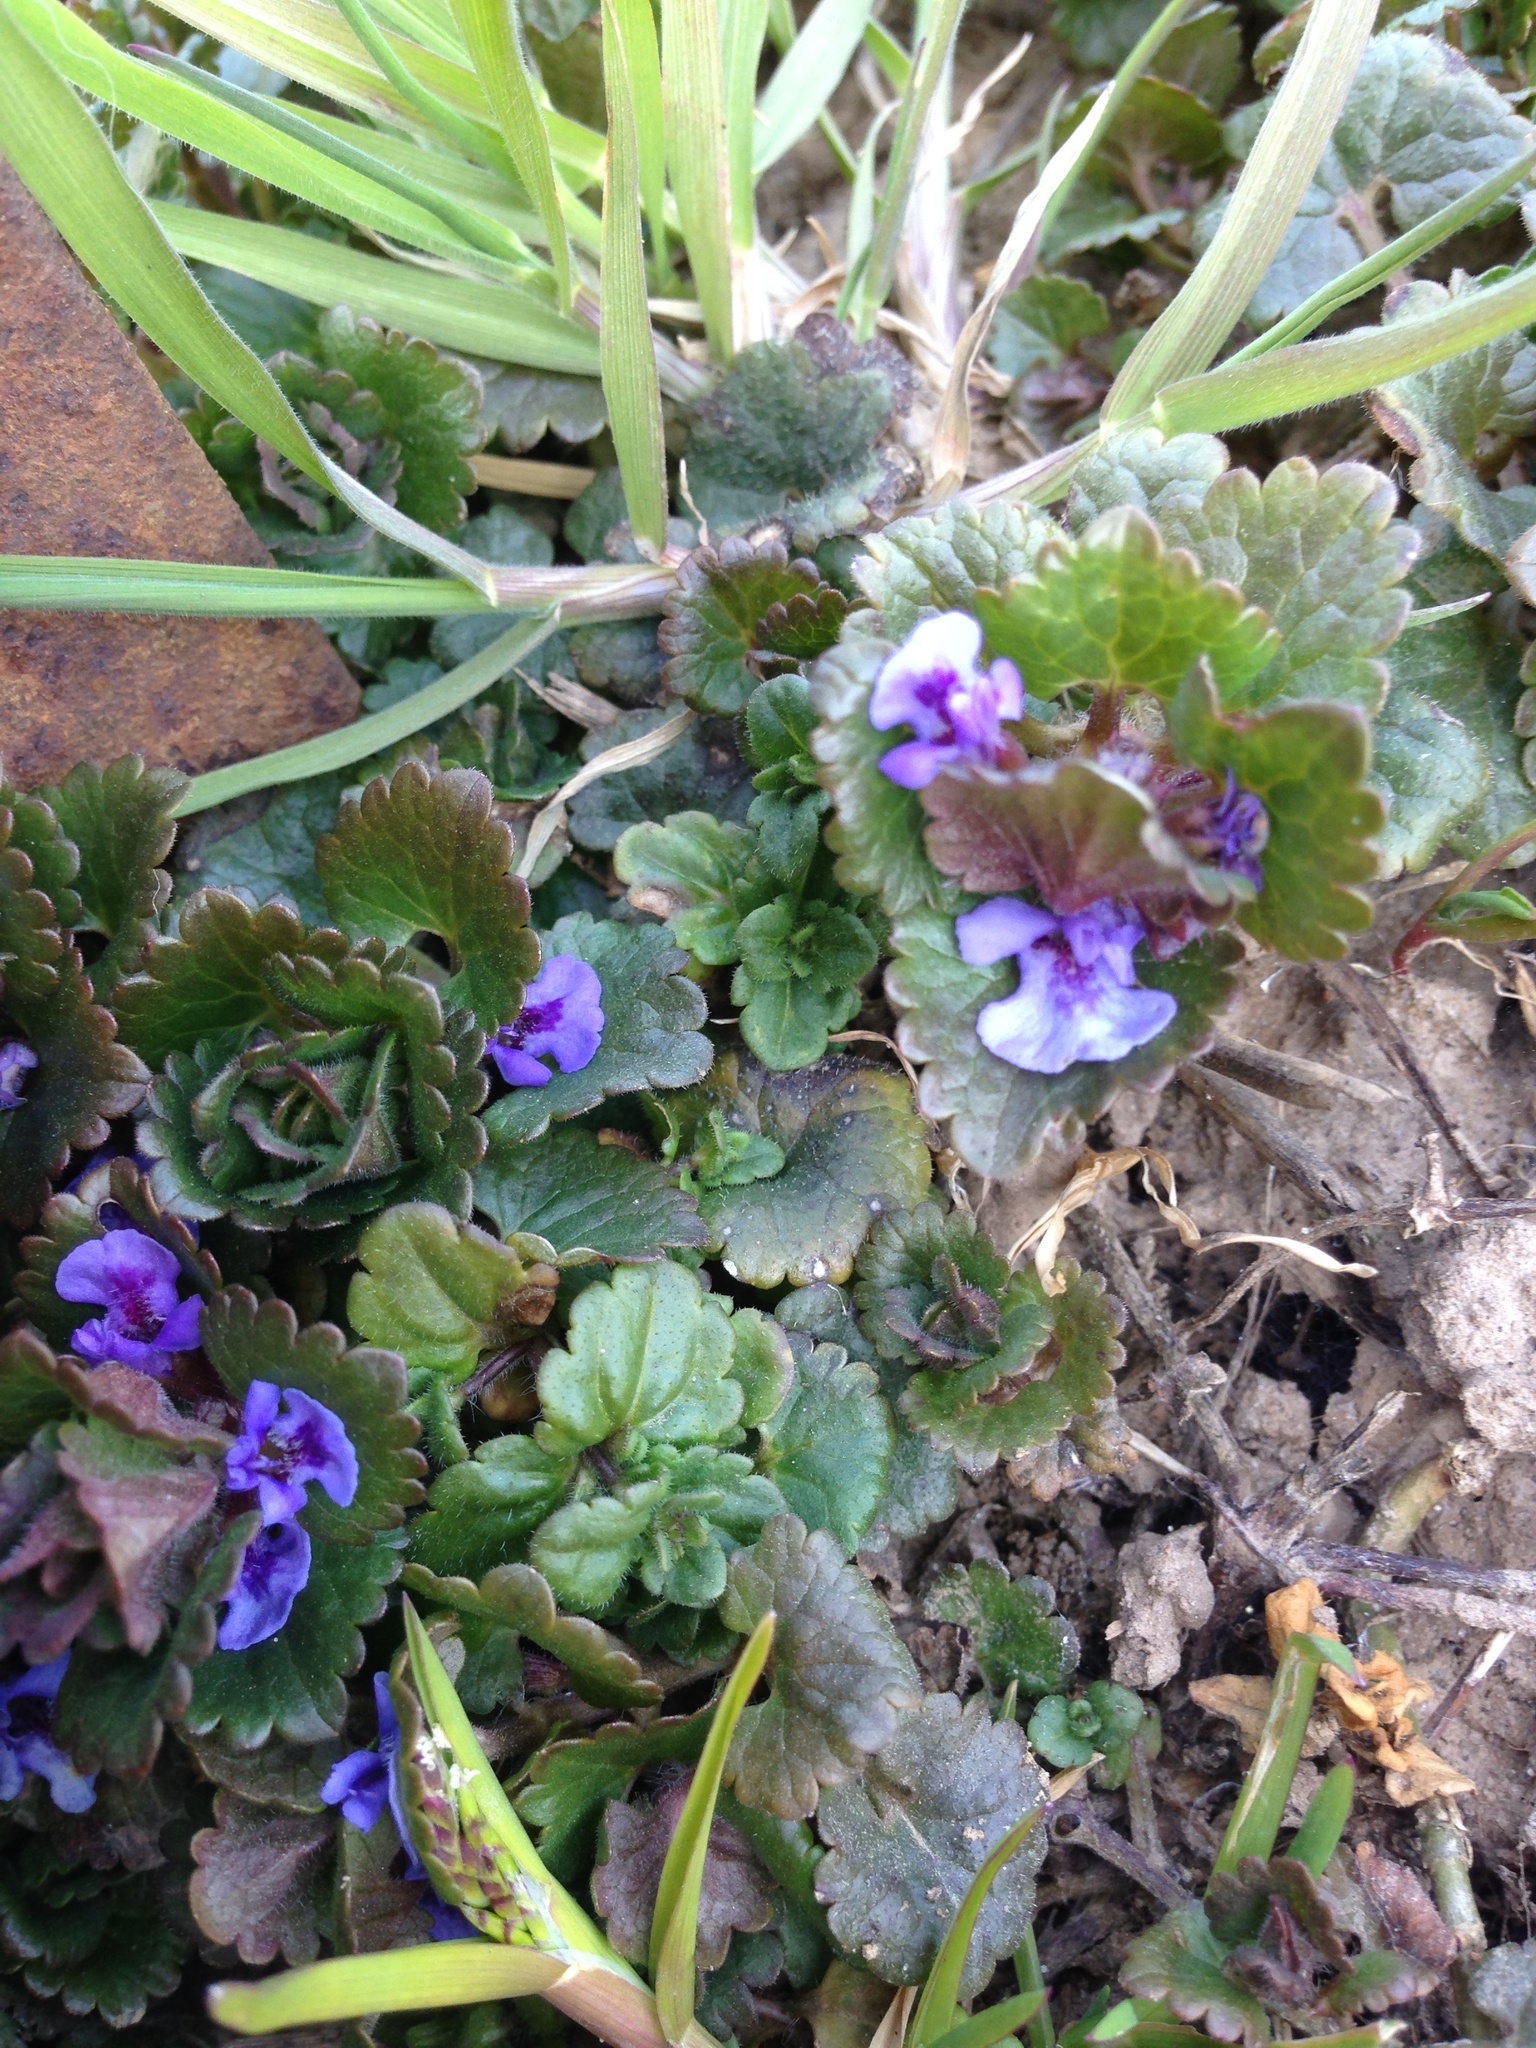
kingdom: Plantae
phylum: Tracheophyta
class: Magnoliopsida
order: Lamiales
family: Lamiaceae
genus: Glechoma
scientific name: Glechoma hederacea
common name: Ground ivy
